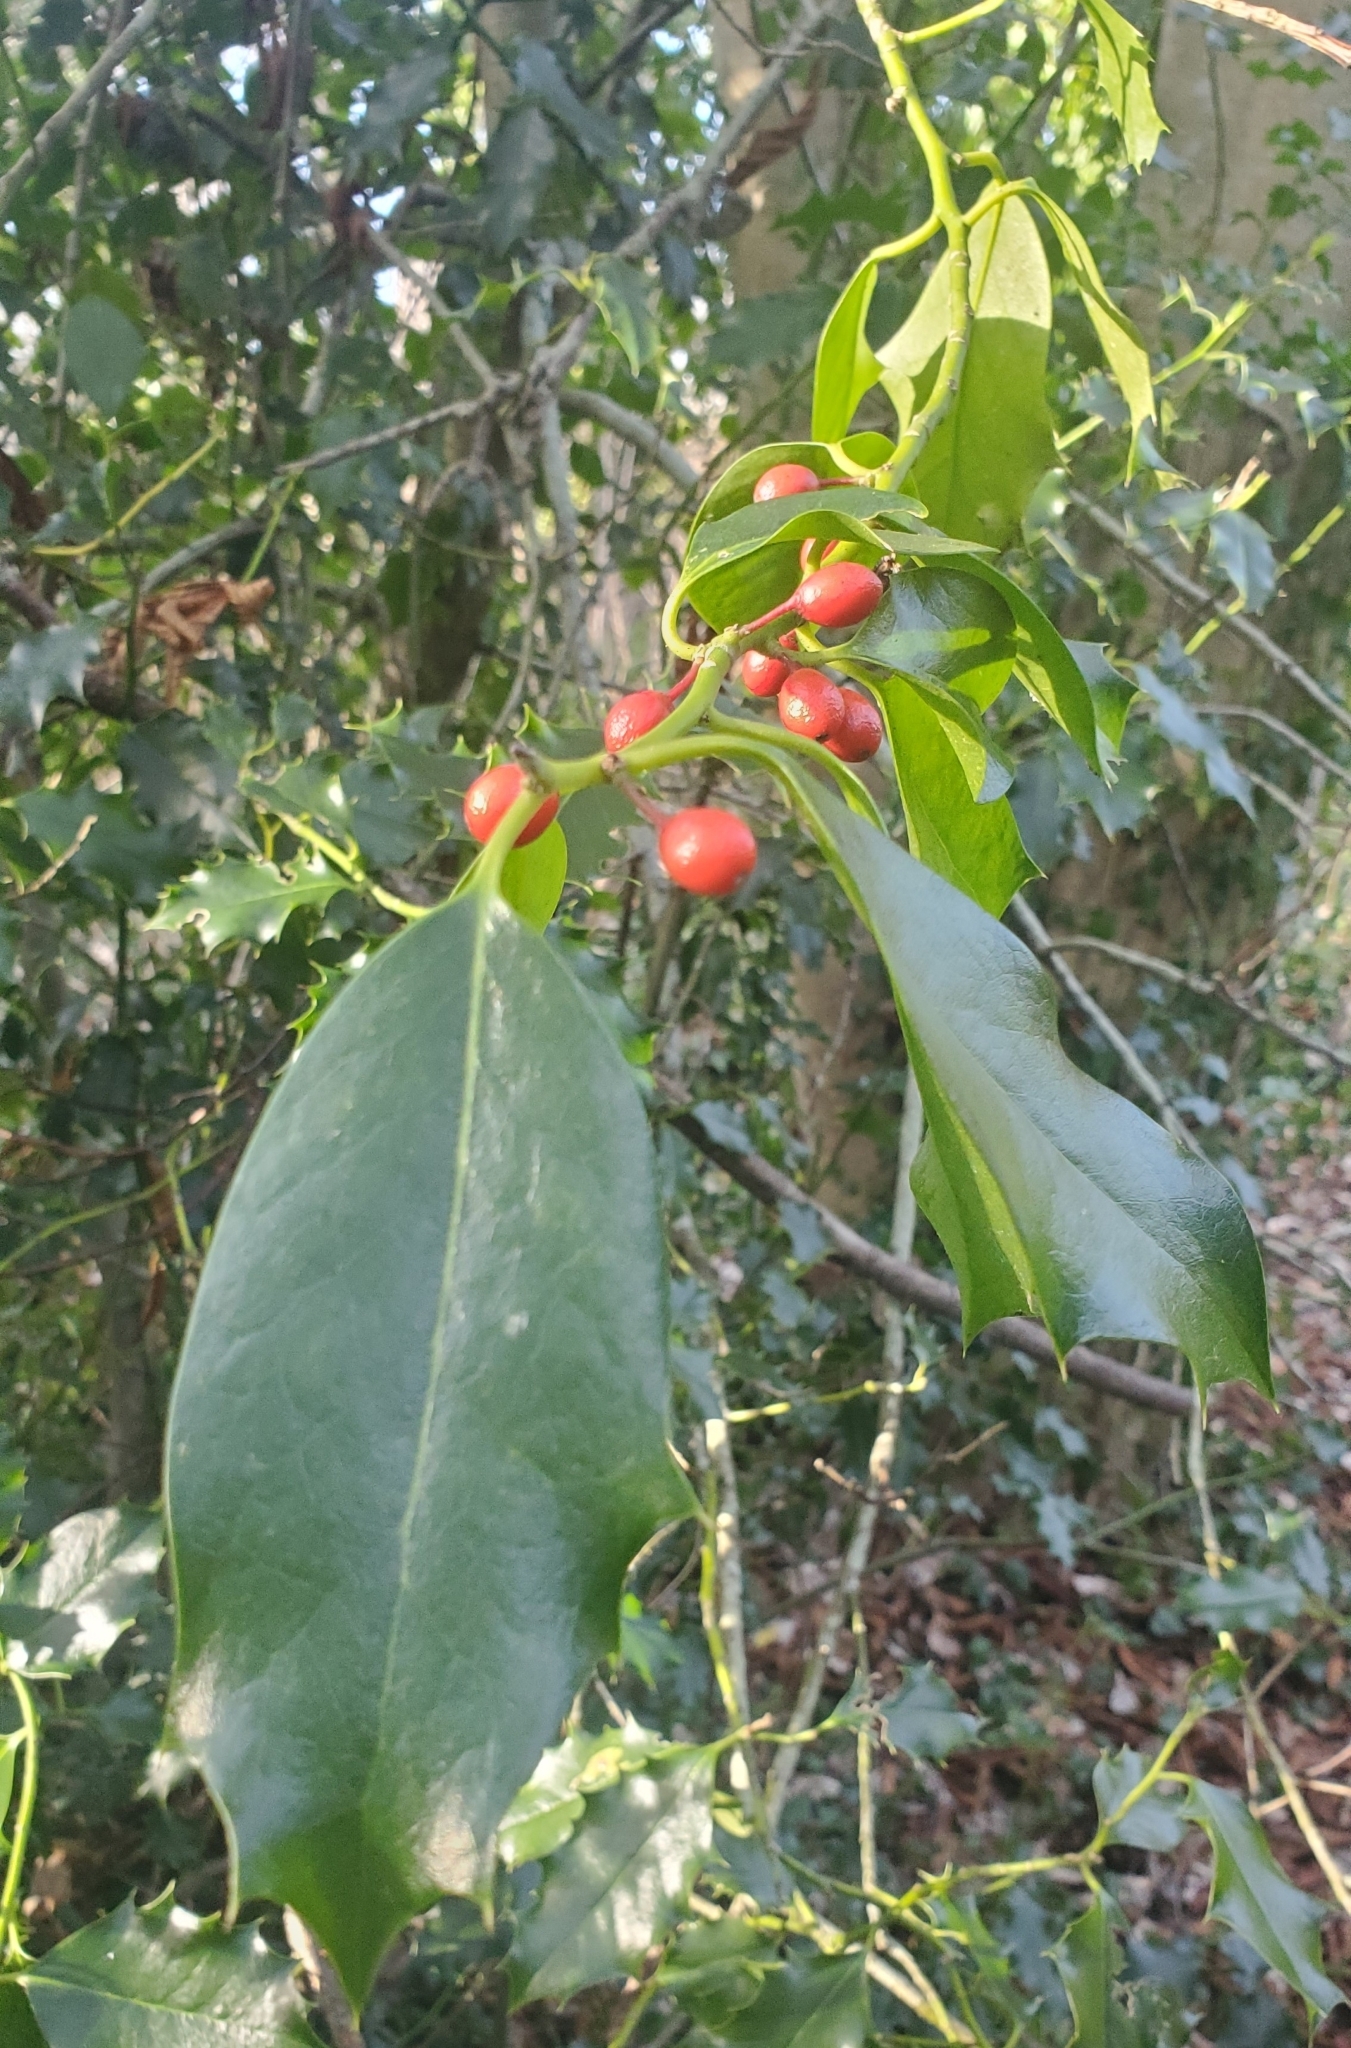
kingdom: Plantae
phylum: Tracheophyta
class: Magnoliopsida
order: Aquifoliales
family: Aquifoliaceae
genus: Ilex
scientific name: Ilex aquifolium
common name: English holly
